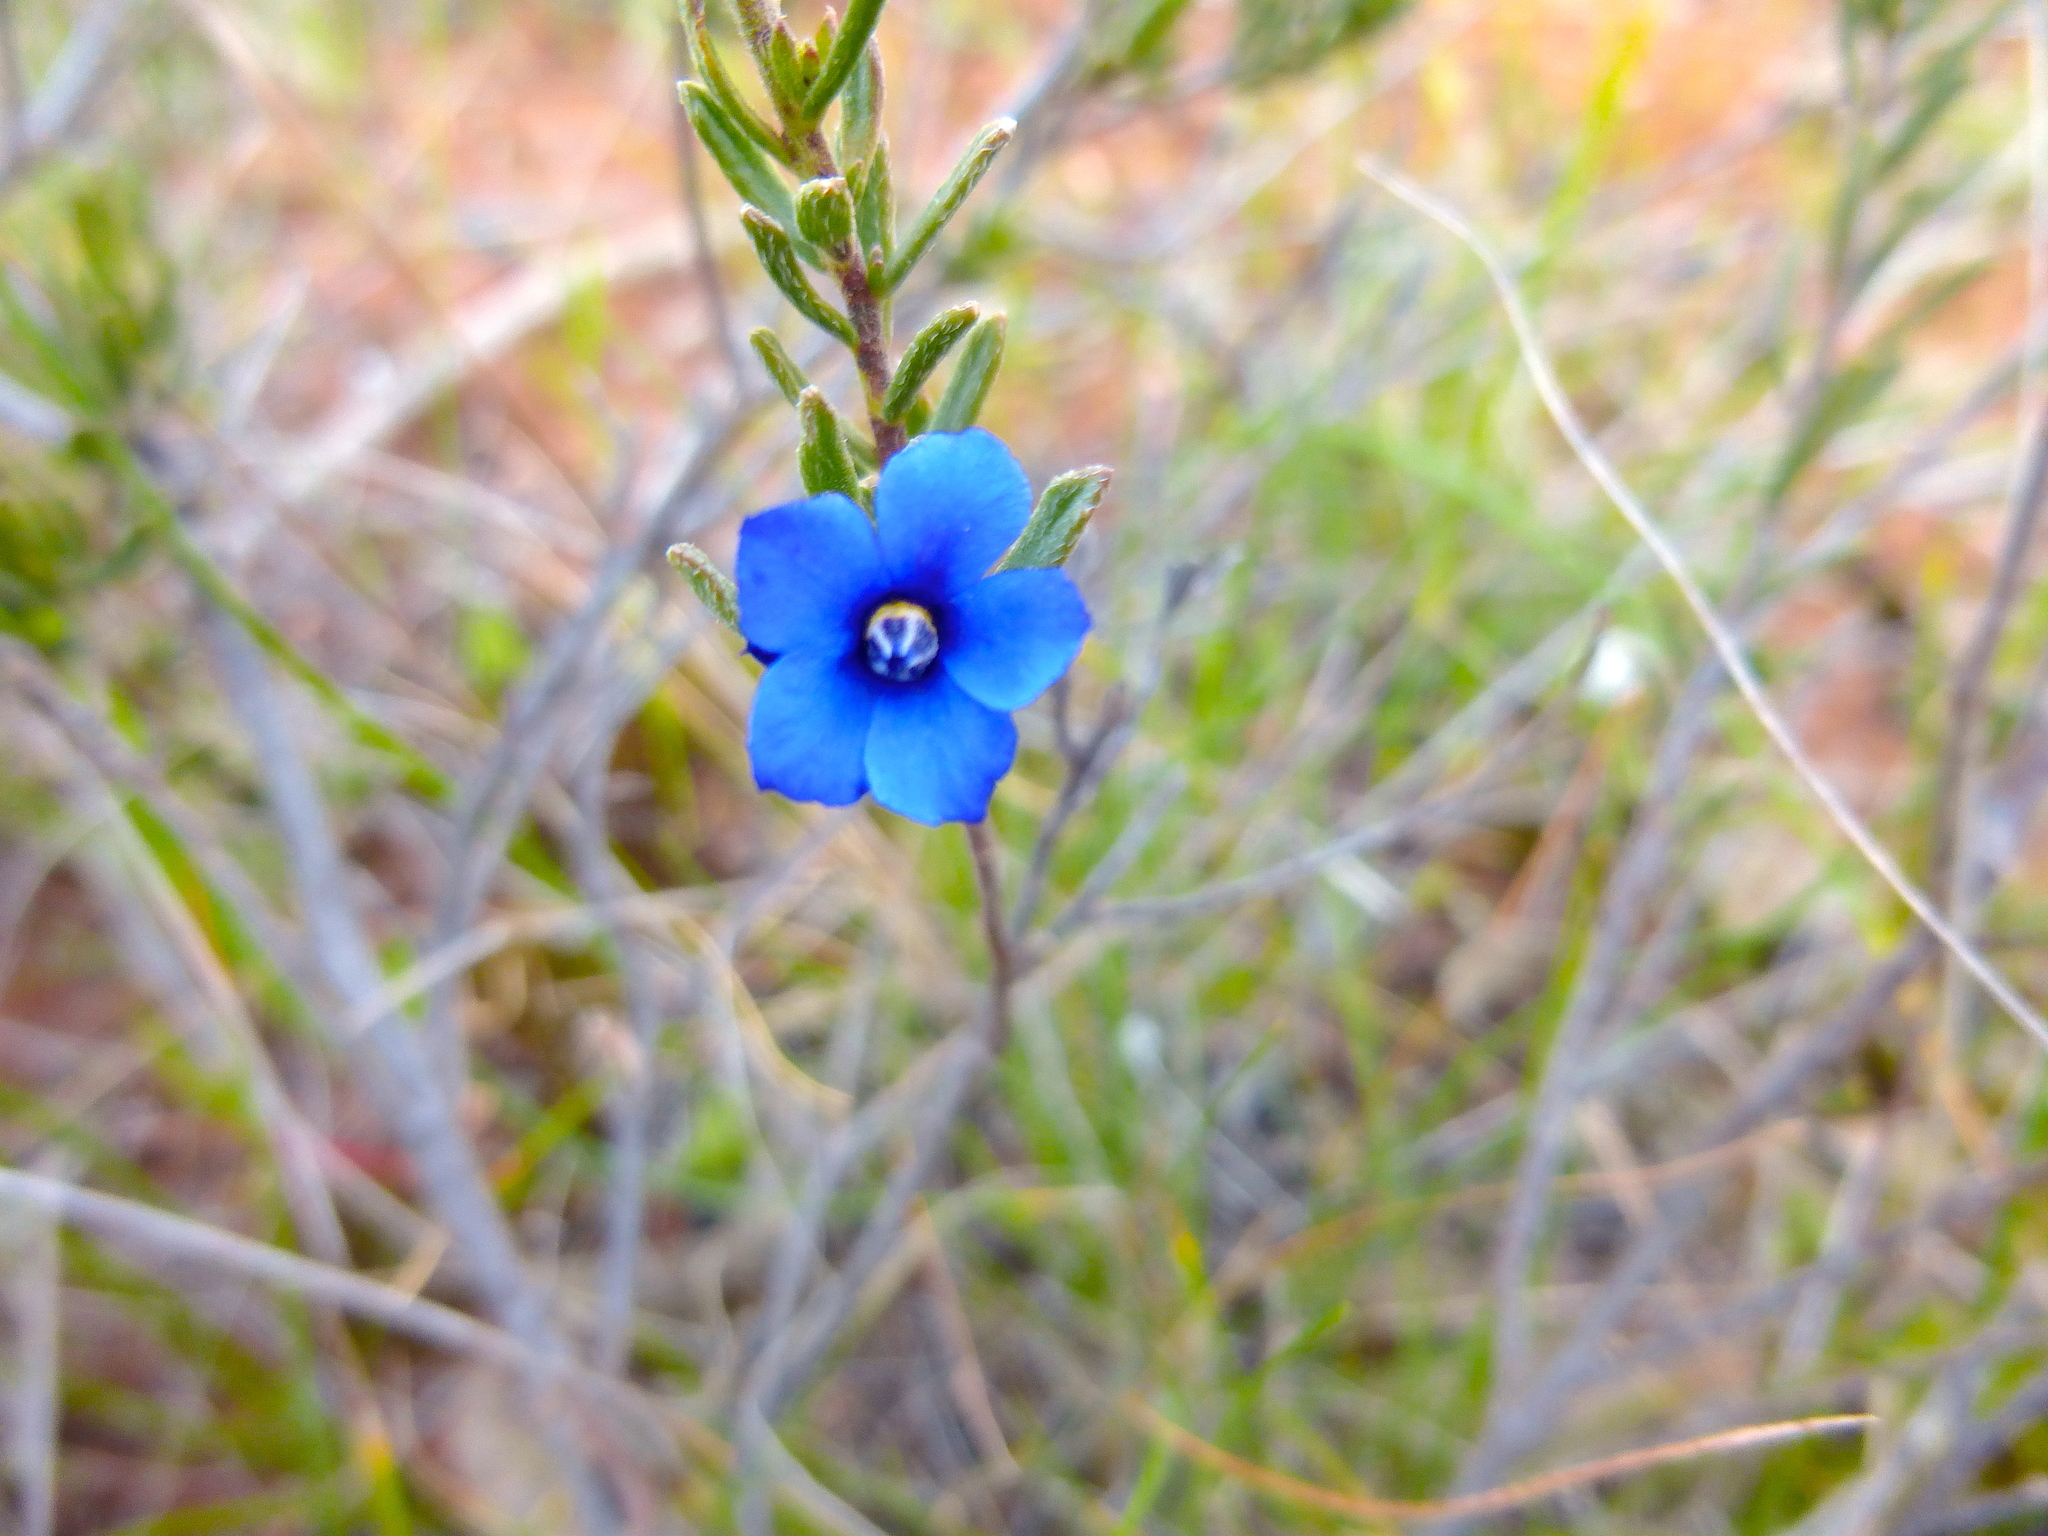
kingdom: Plantae
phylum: Tracheophyta
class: Magnoliopsida
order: Boraginales
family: Ehretiaceae
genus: Halgania
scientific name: Halgania cyanea
